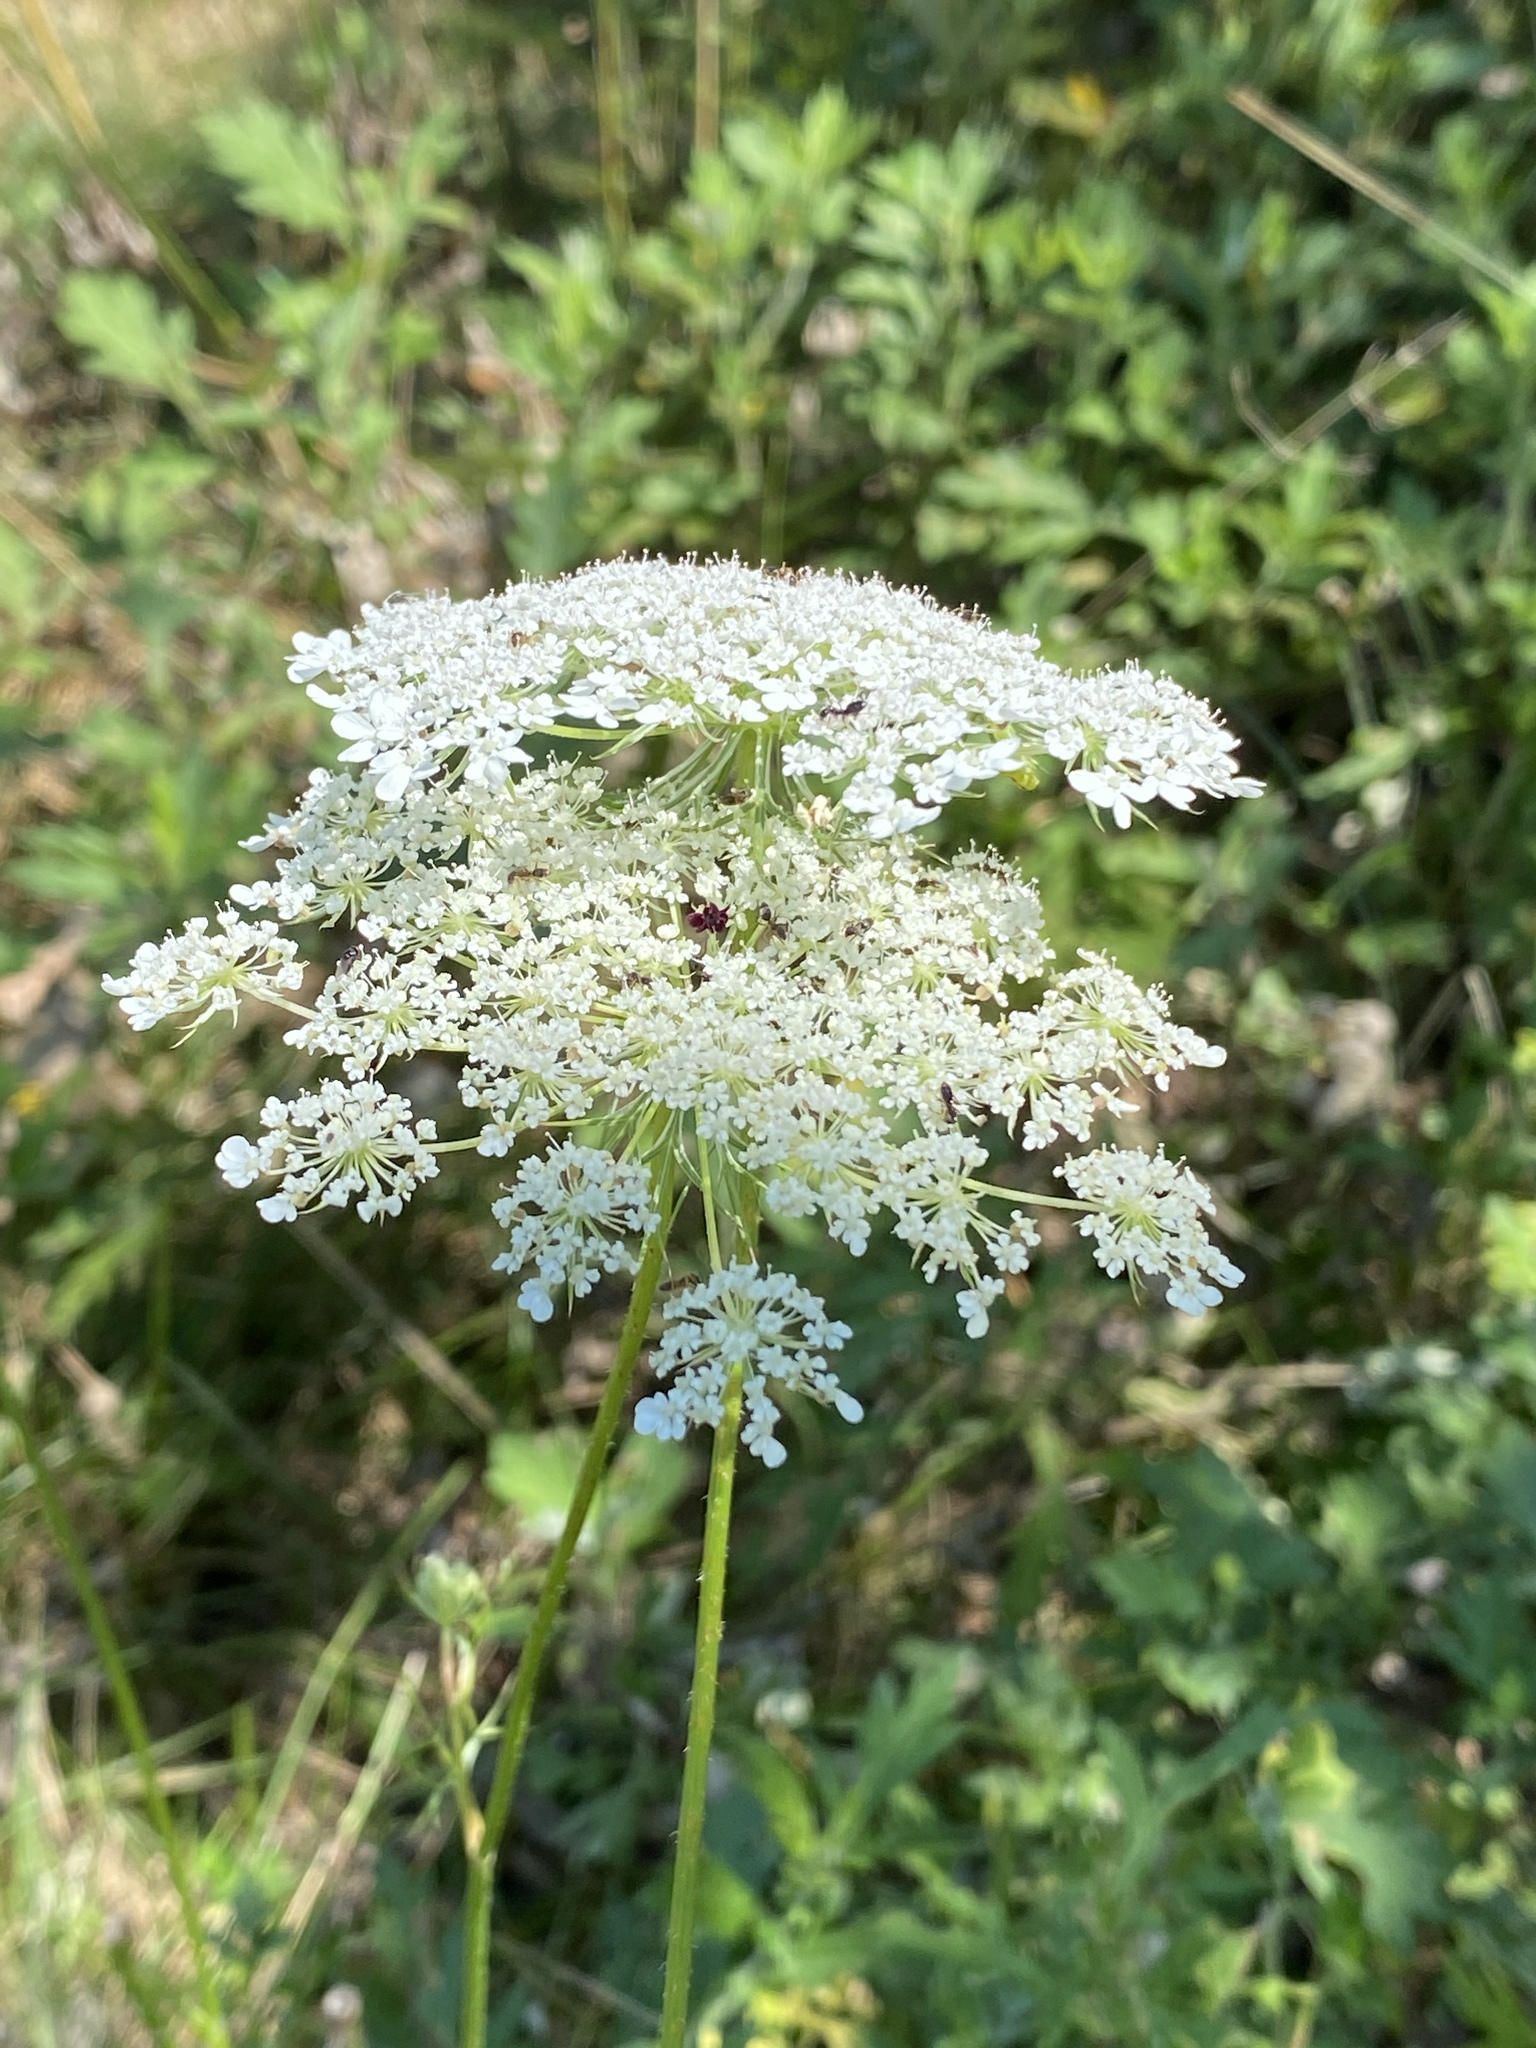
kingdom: Plantae
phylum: Tracheophyta
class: Magnoliopsida
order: Apiales
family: Apiaceae
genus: Daucus
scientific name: Daucus carota
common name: Wild carrot
